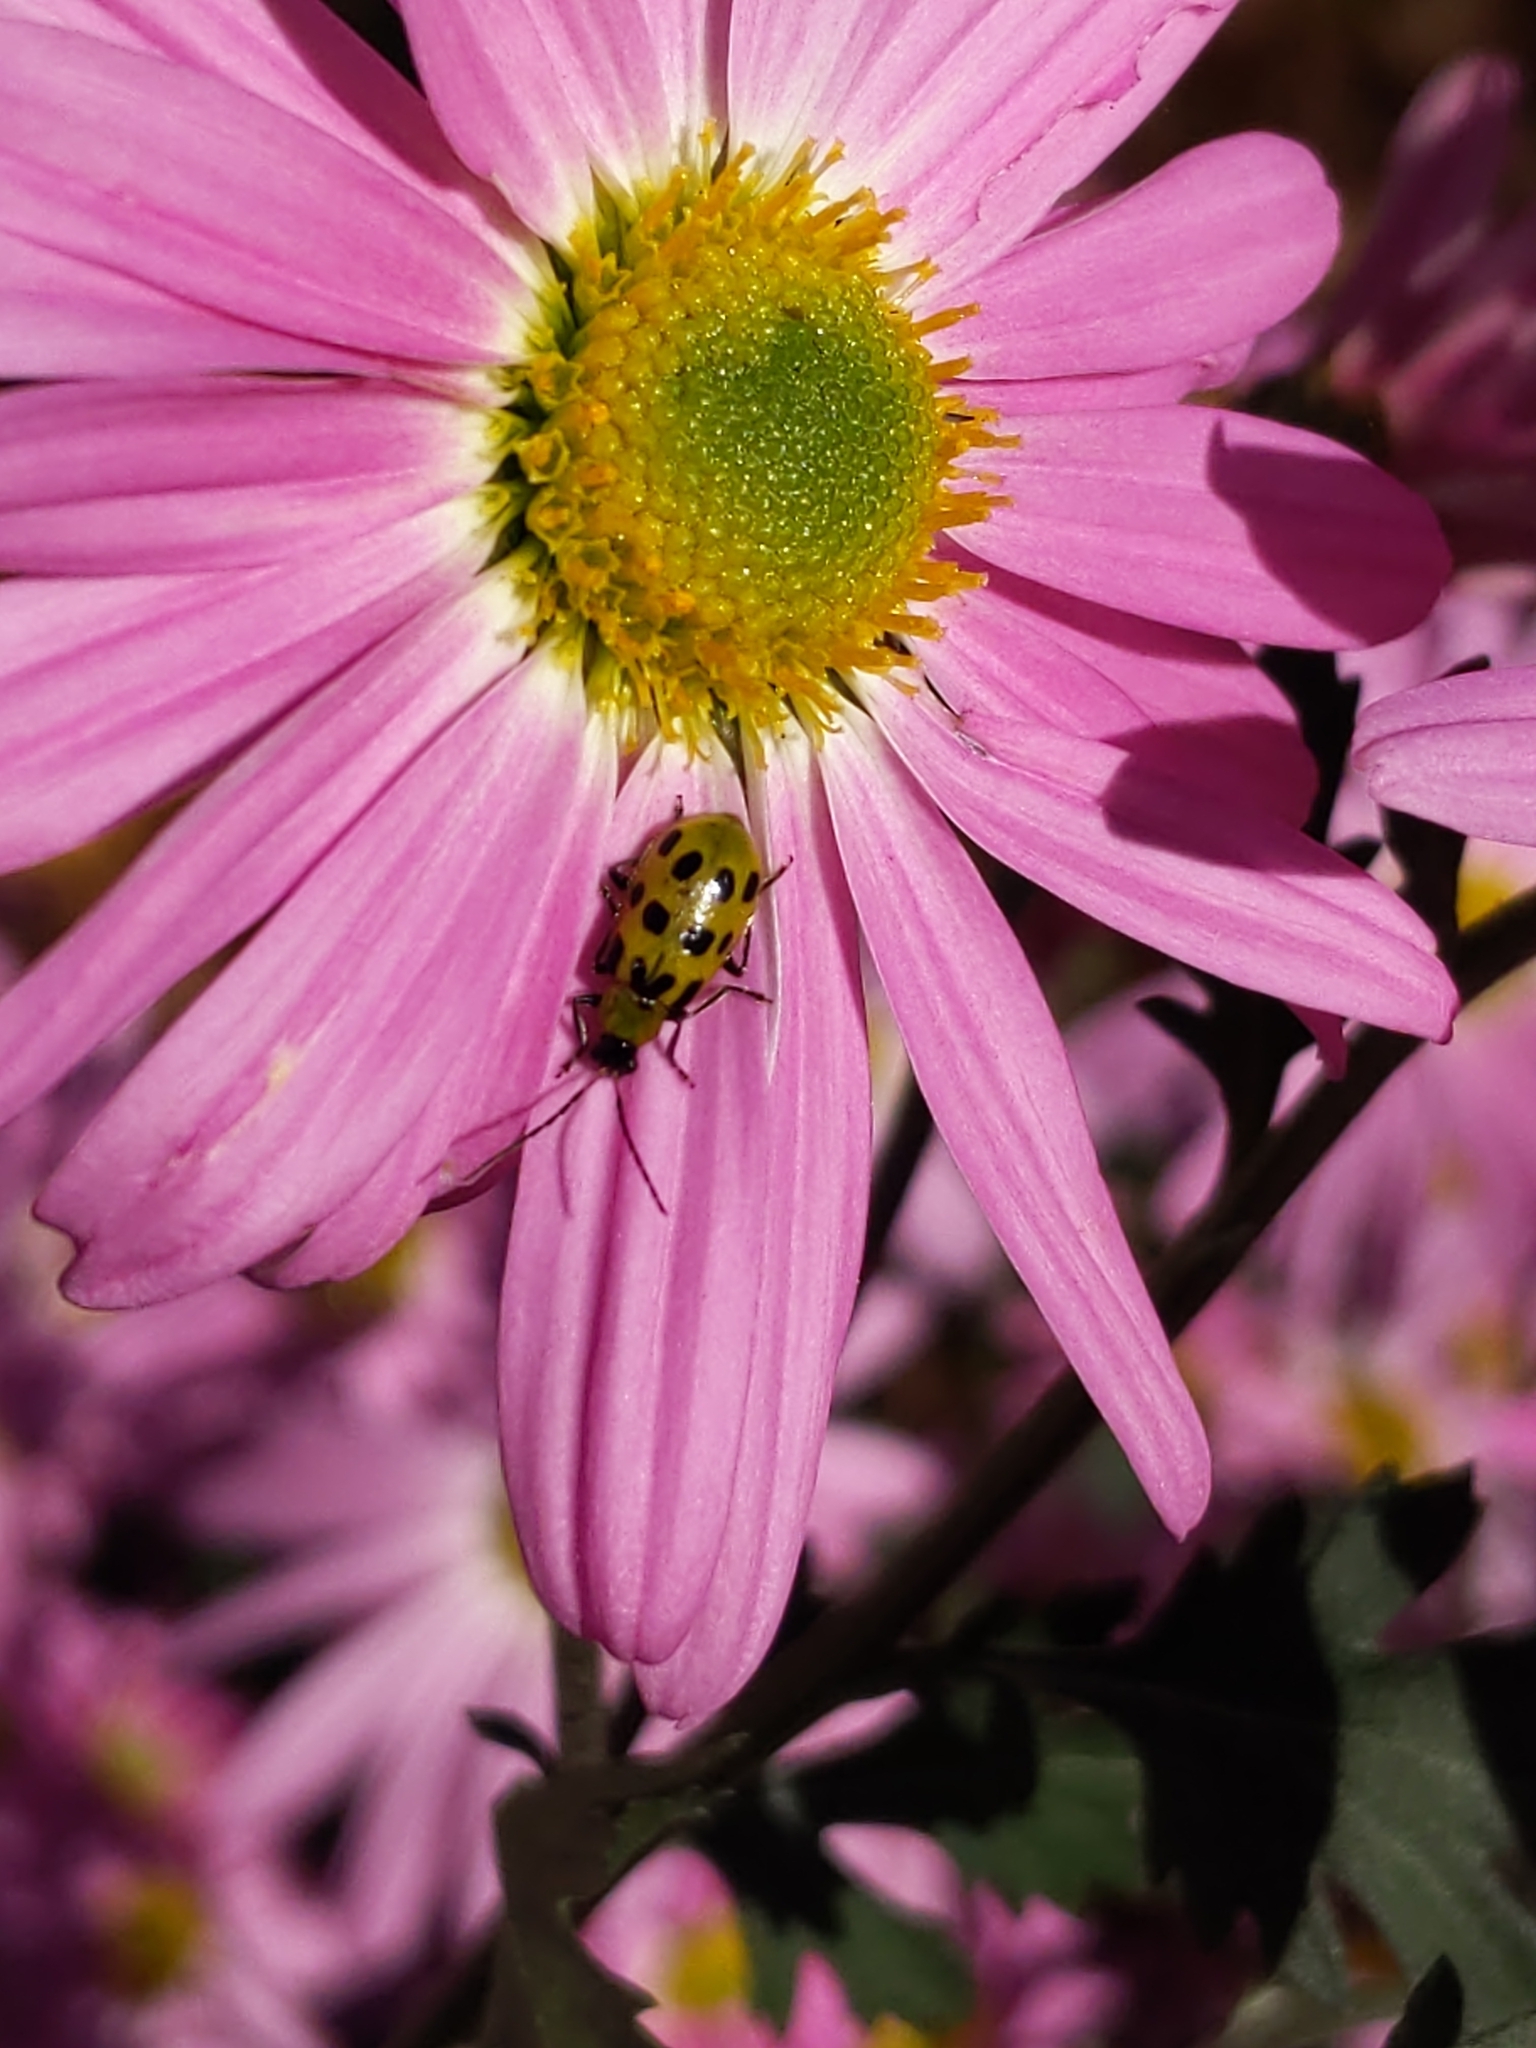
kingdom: Animalia
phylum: Arthropoda
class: Insecta
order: Coleoptera
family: Chrysomelidae
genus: Diabrotica
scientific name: Diabrotica undecimpunctata
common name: Spotted cucumber beetle
